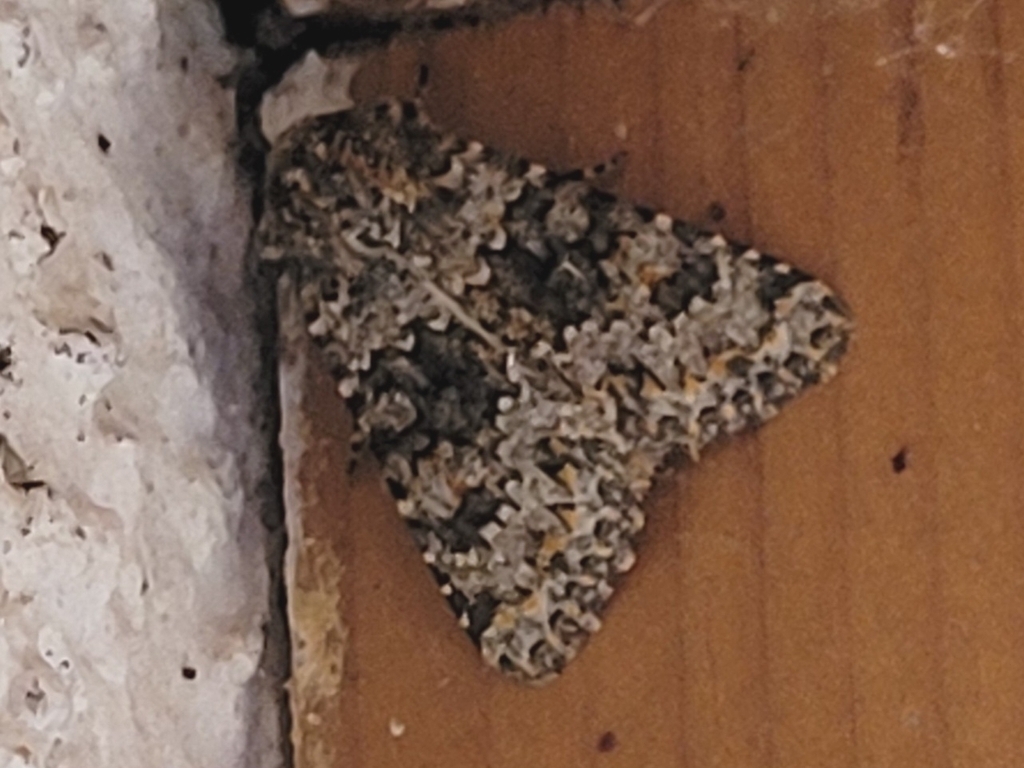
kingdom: Animalia
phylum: Arthropoda
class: Insecta
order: Lepidoptera
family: Noctuidae
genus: Hecatera
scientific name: Hecatera dysodea
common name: Small ranunculus
